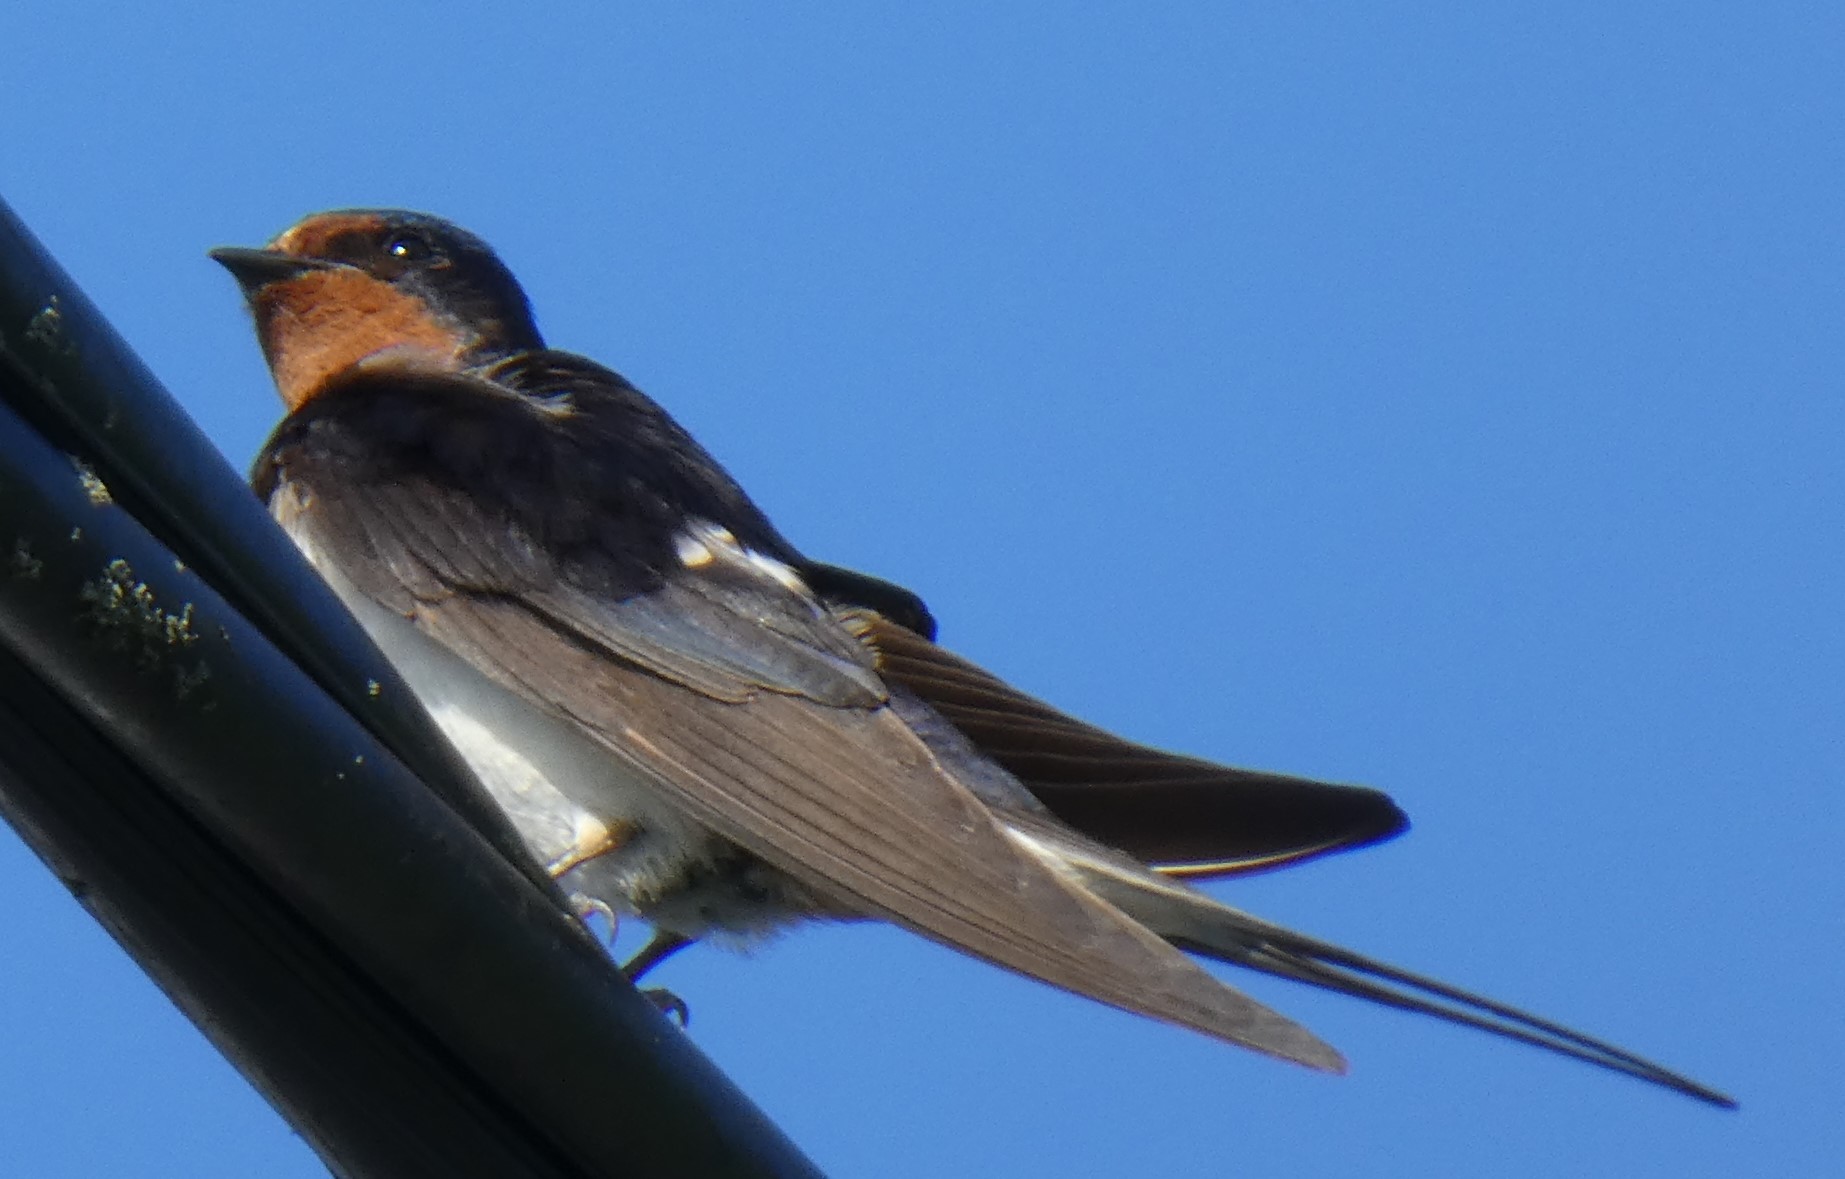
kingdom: Animalia
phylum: Chordata
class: Aves
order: Passeriformes
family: Hirundinidae
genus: Hirundo
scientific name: Hirundo rustica
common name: Barn swallow
